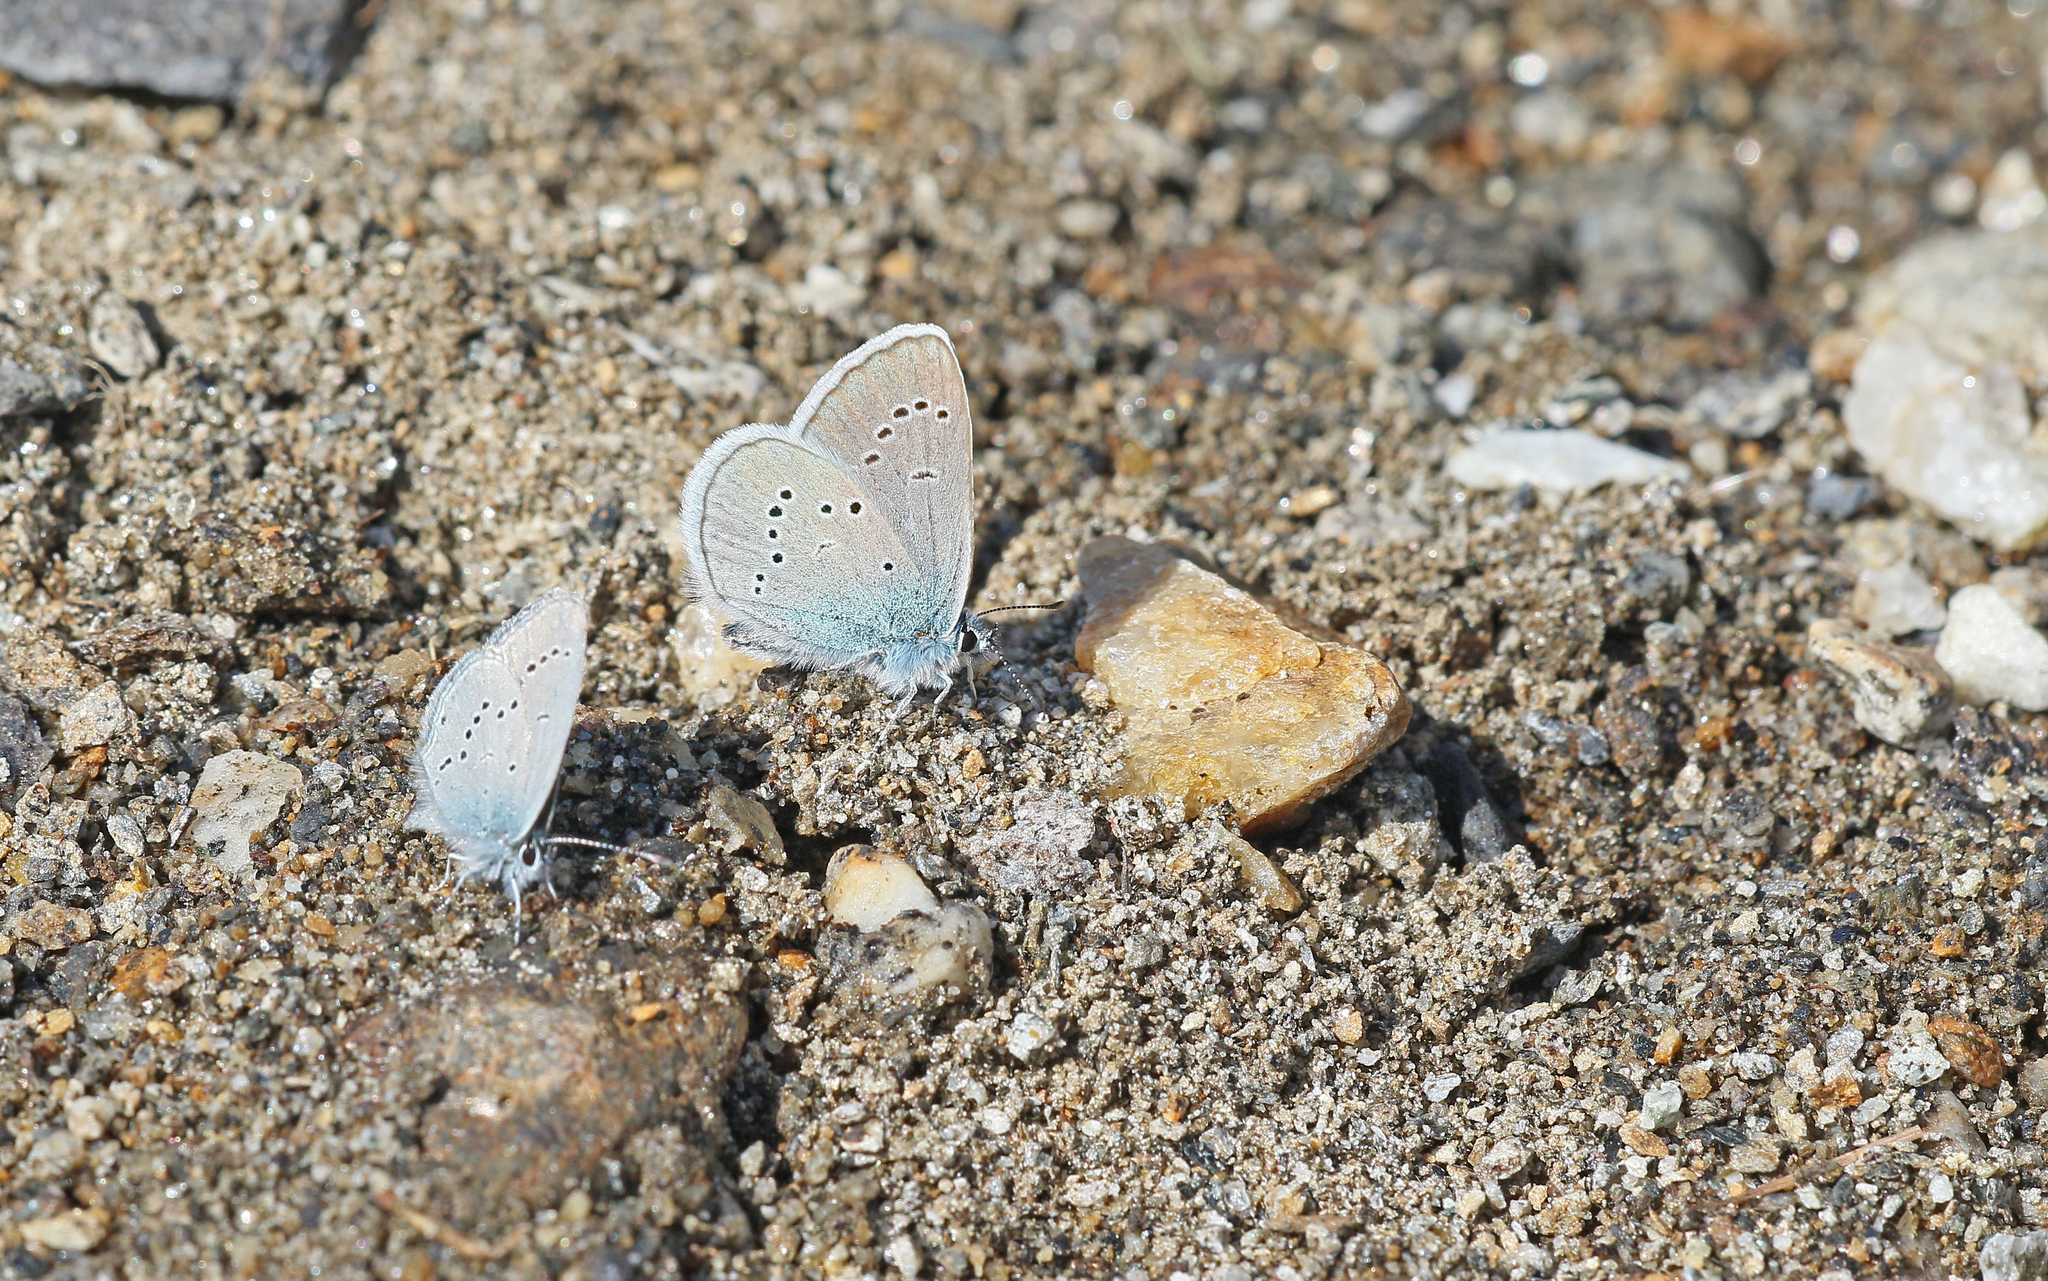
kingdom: Animalia
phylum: Arthropoda
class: Insecta
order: Lepidoptera
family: Lycaenidae
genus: Cyaniris
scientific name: Cyaniris semiargus
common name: Mazarine blue
